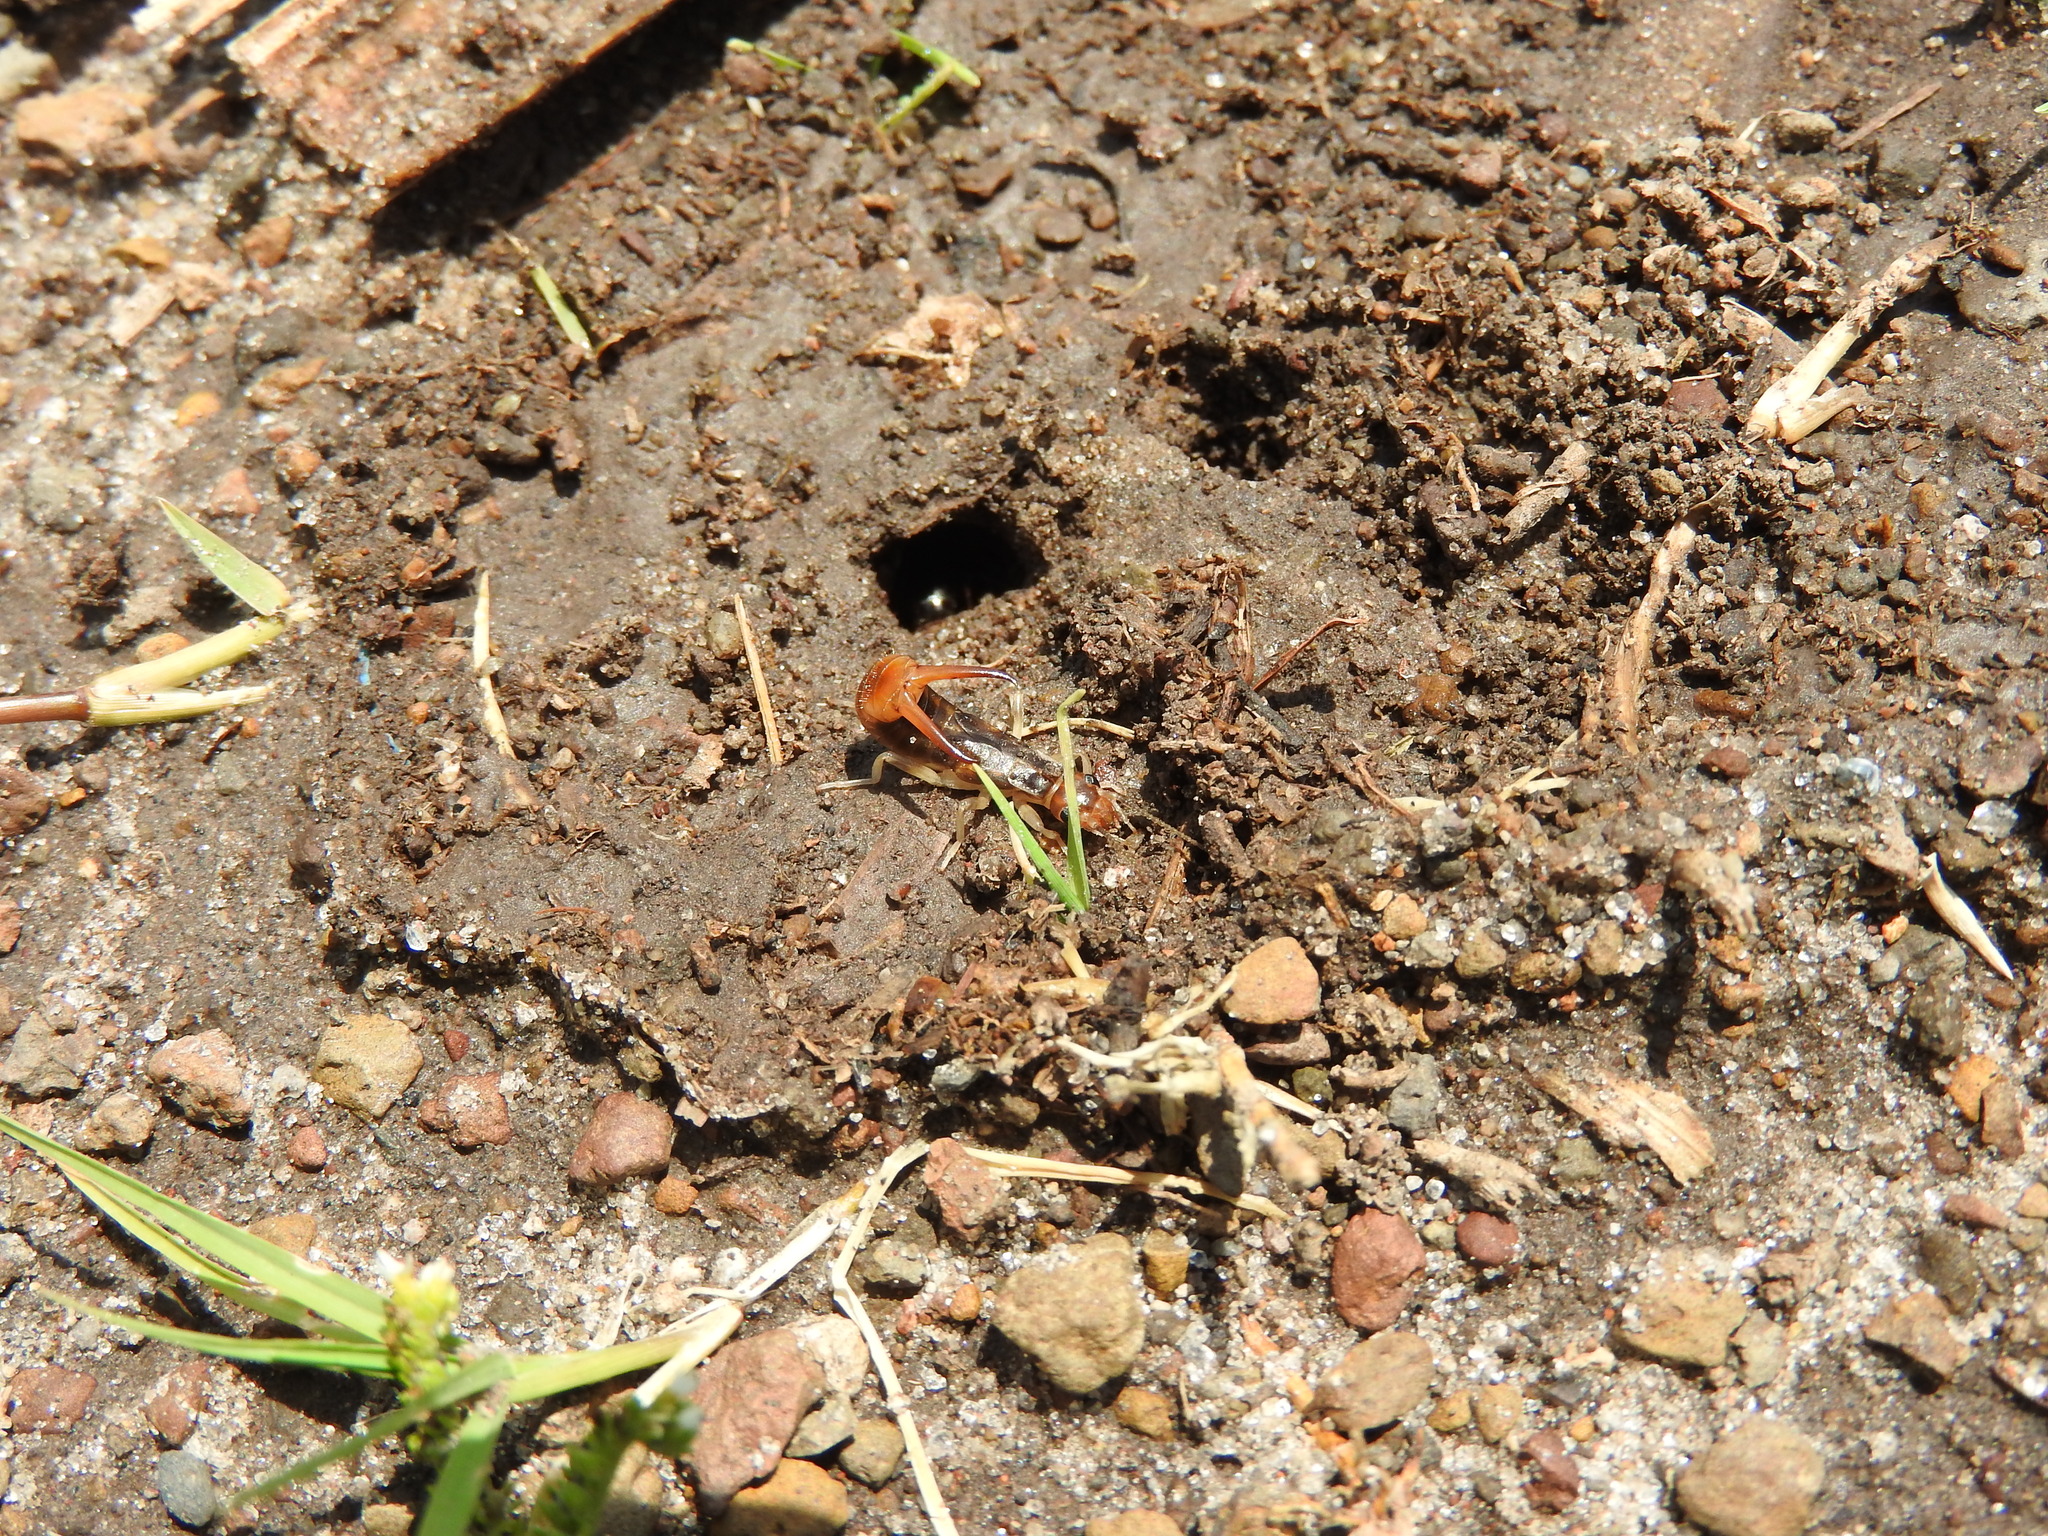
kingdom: Animalia
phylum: Arthropoda
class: Insecta
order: Dermaptera
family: Labiduridae
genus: Labidura
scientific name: Labidura riparia
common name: Striped earwig
